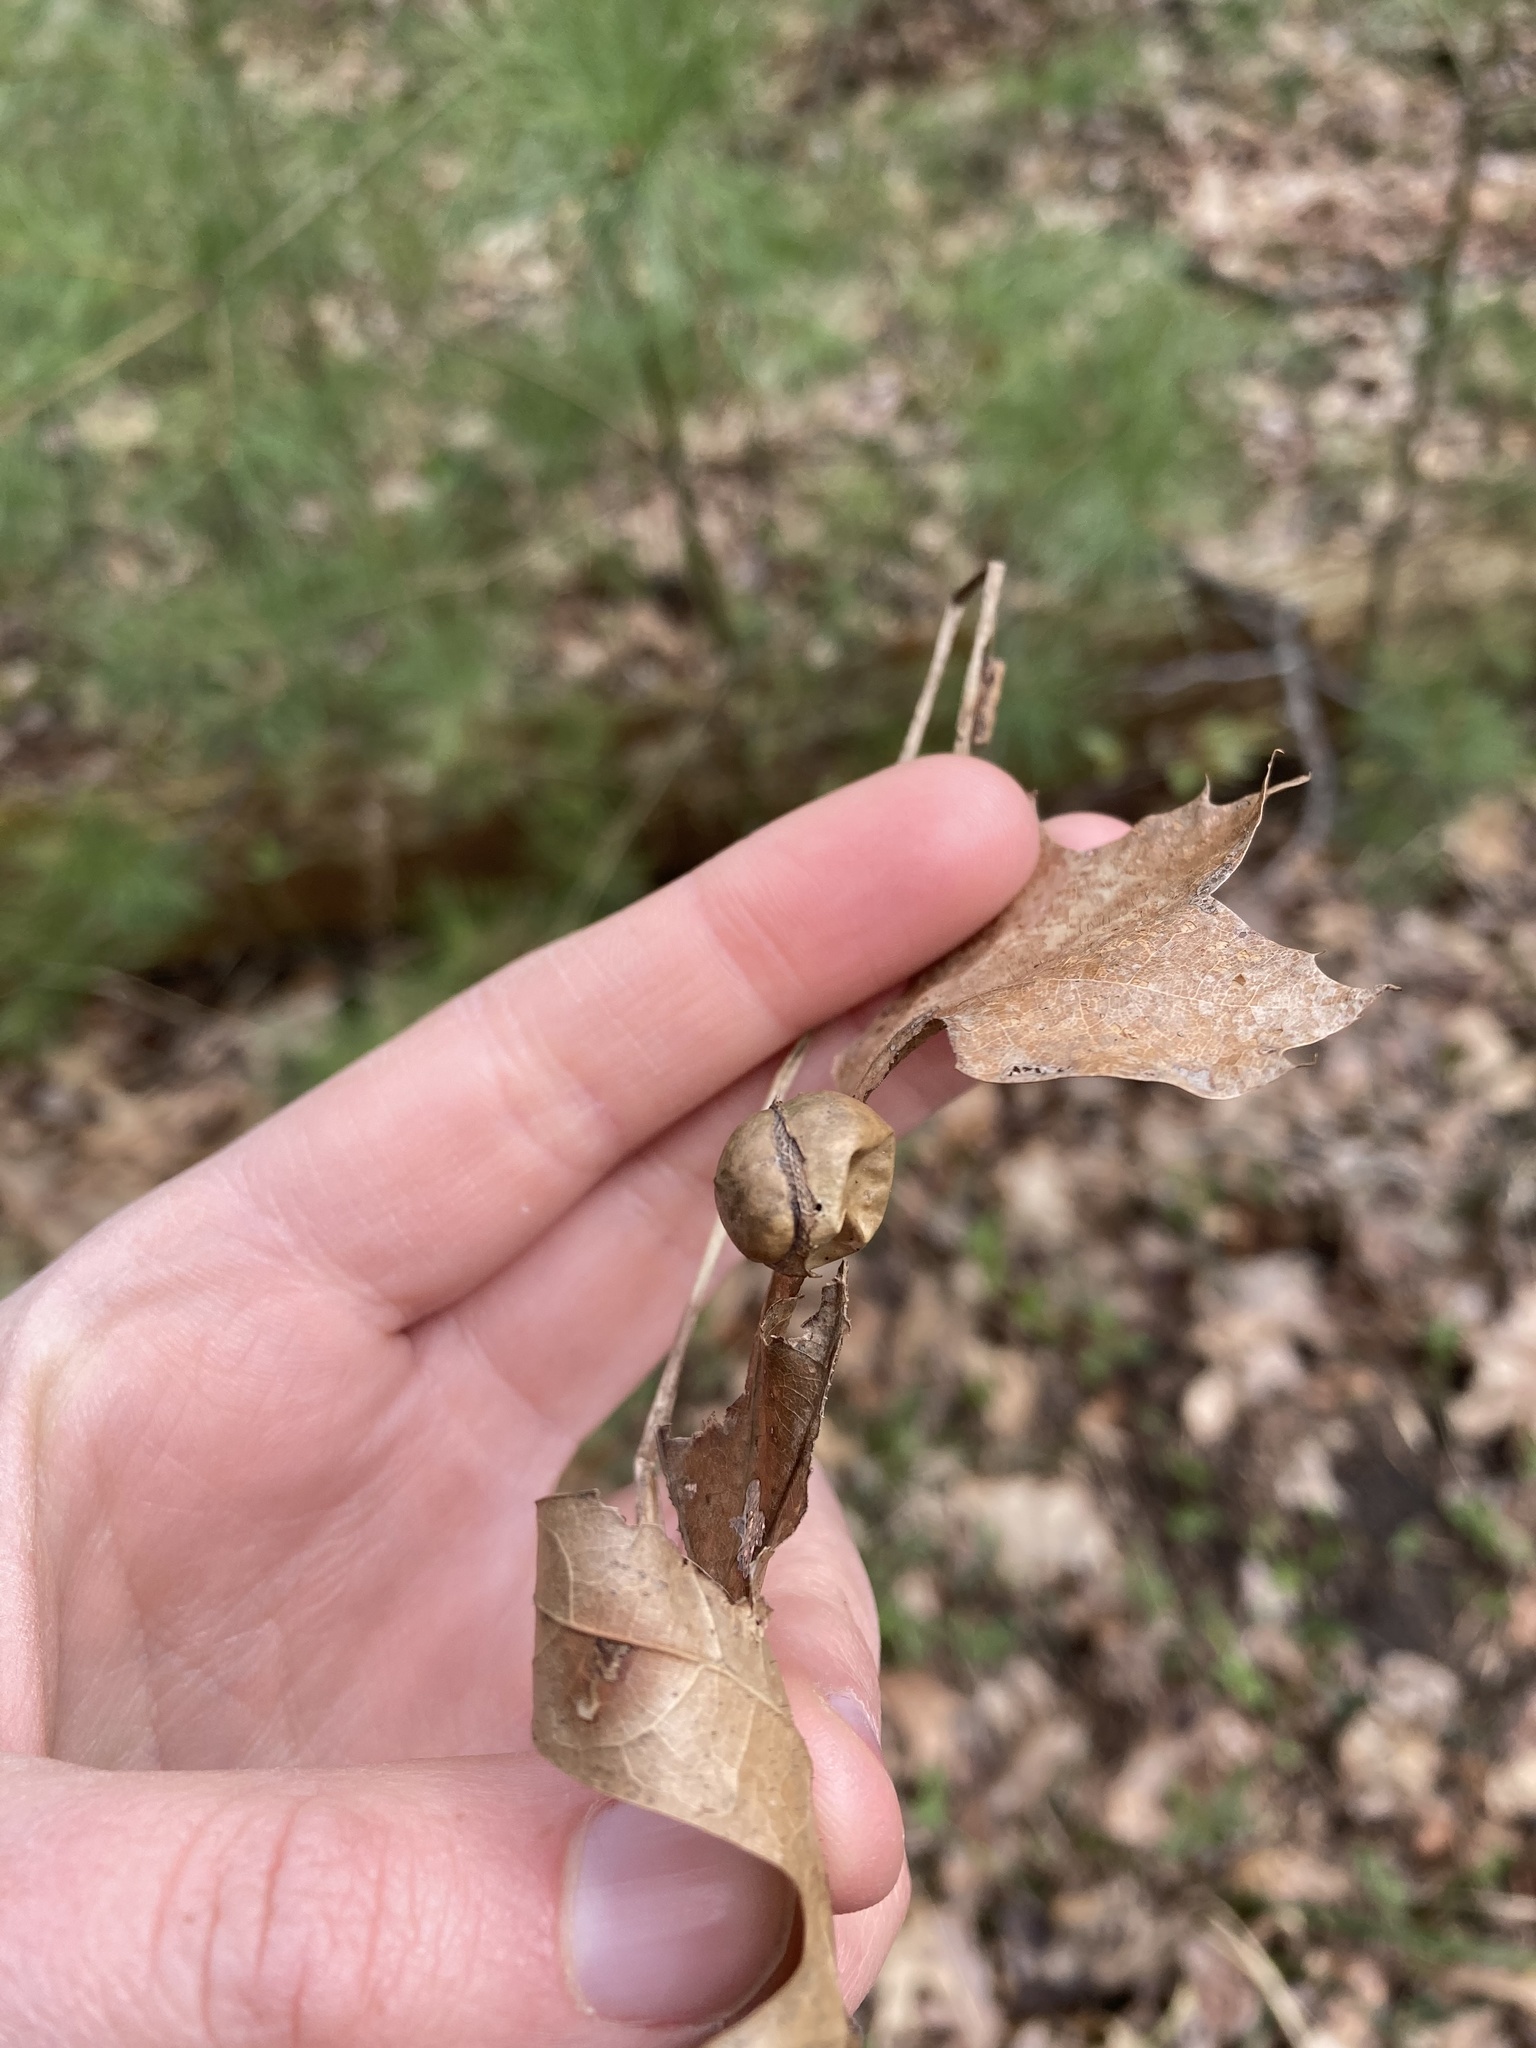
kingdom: Animalia
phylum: Arthropoda
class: Insecta
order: Hymenoptera
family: Cynipidae
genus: Amphibolips
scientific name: Amphibolips
